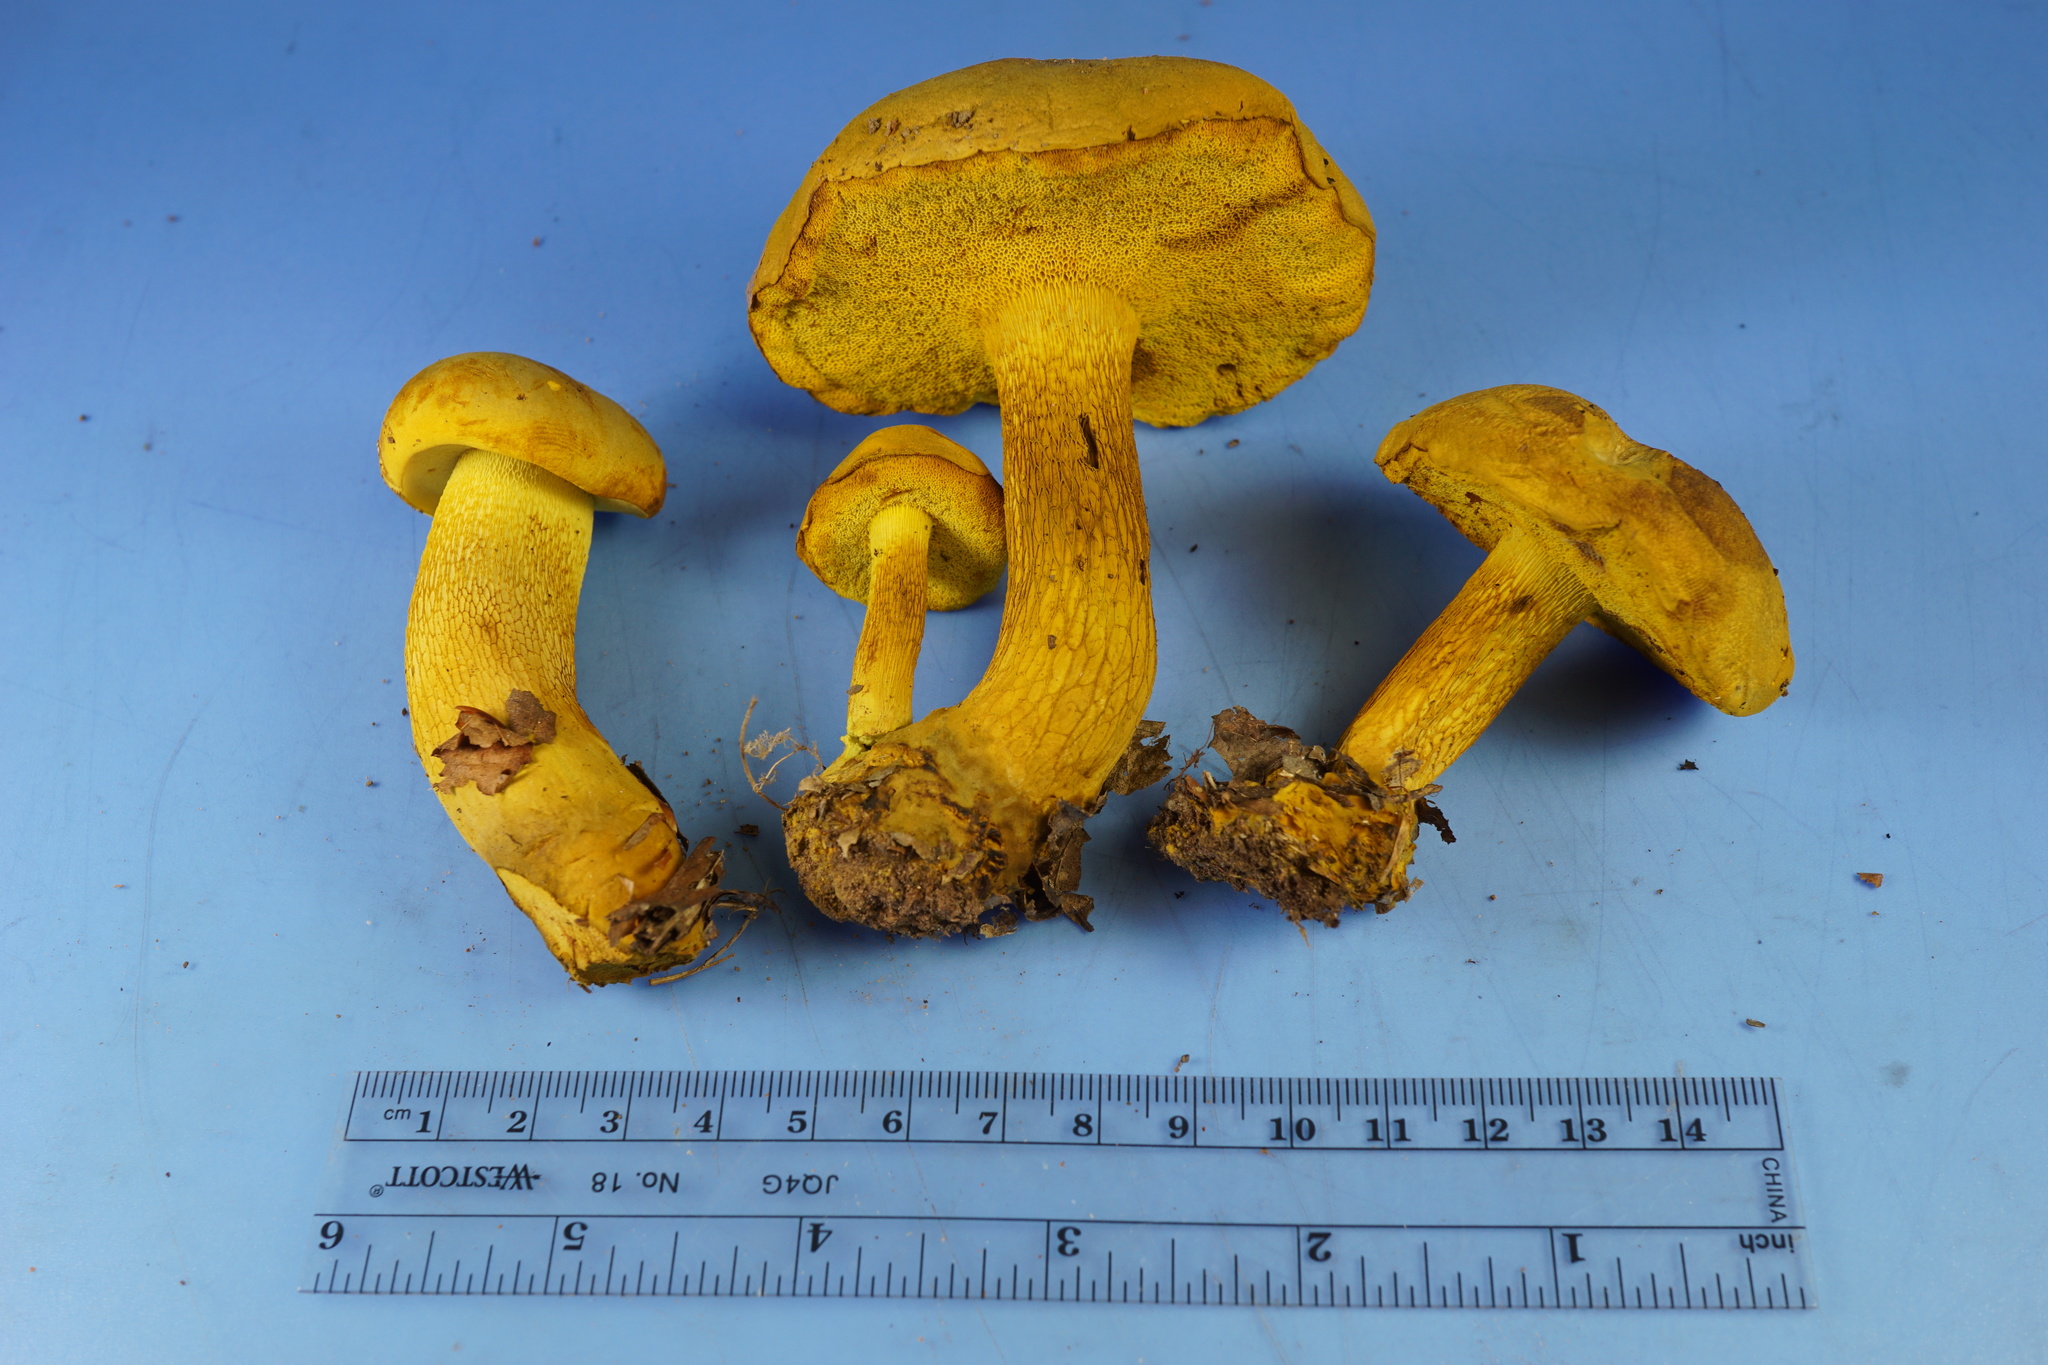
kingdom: Fungi
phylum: Basidiomycota
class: Agaricomycetes
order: Boletales
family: Boletaceae
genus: Retiboletus
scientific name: Retiboletus ornatipes
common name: Ornate-stalked bolete
